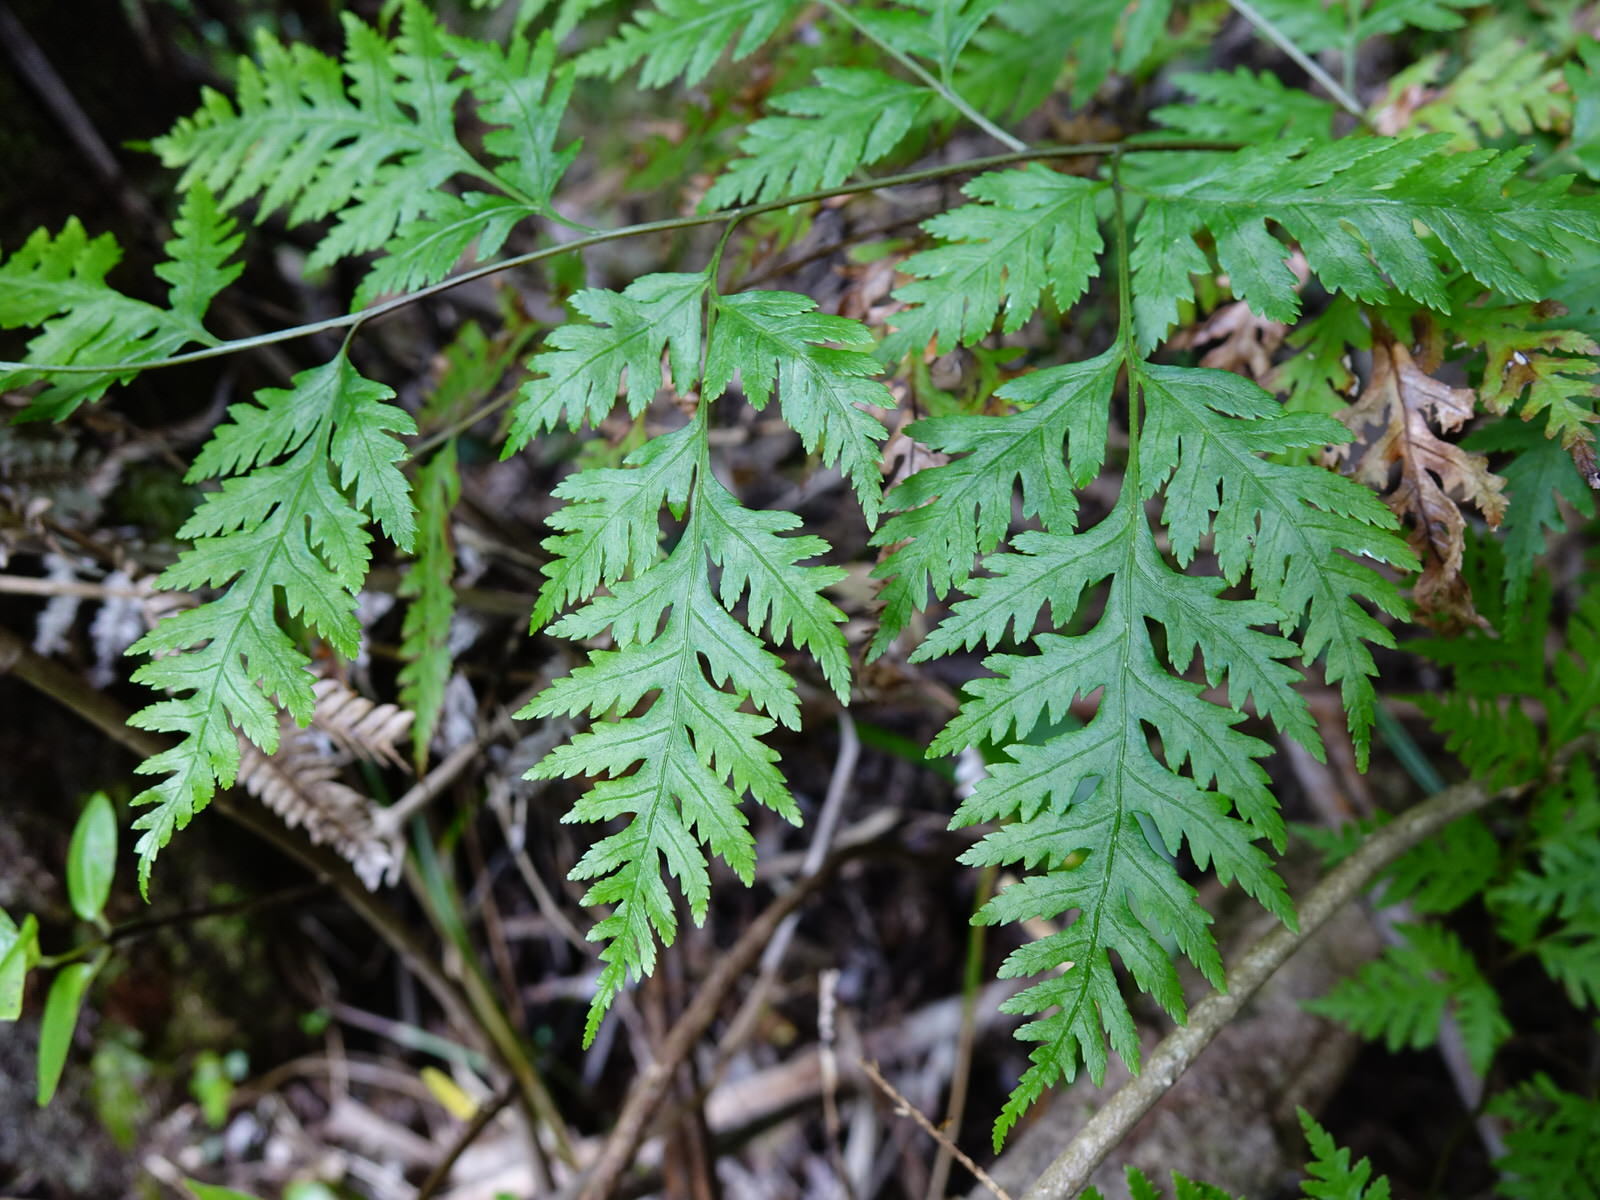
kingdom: Plantae
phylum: Tracheophyta
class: Polypodiopsida
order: Polypodiales
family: Pteridaceae
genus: Pteris
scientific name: Pteris macilenta
